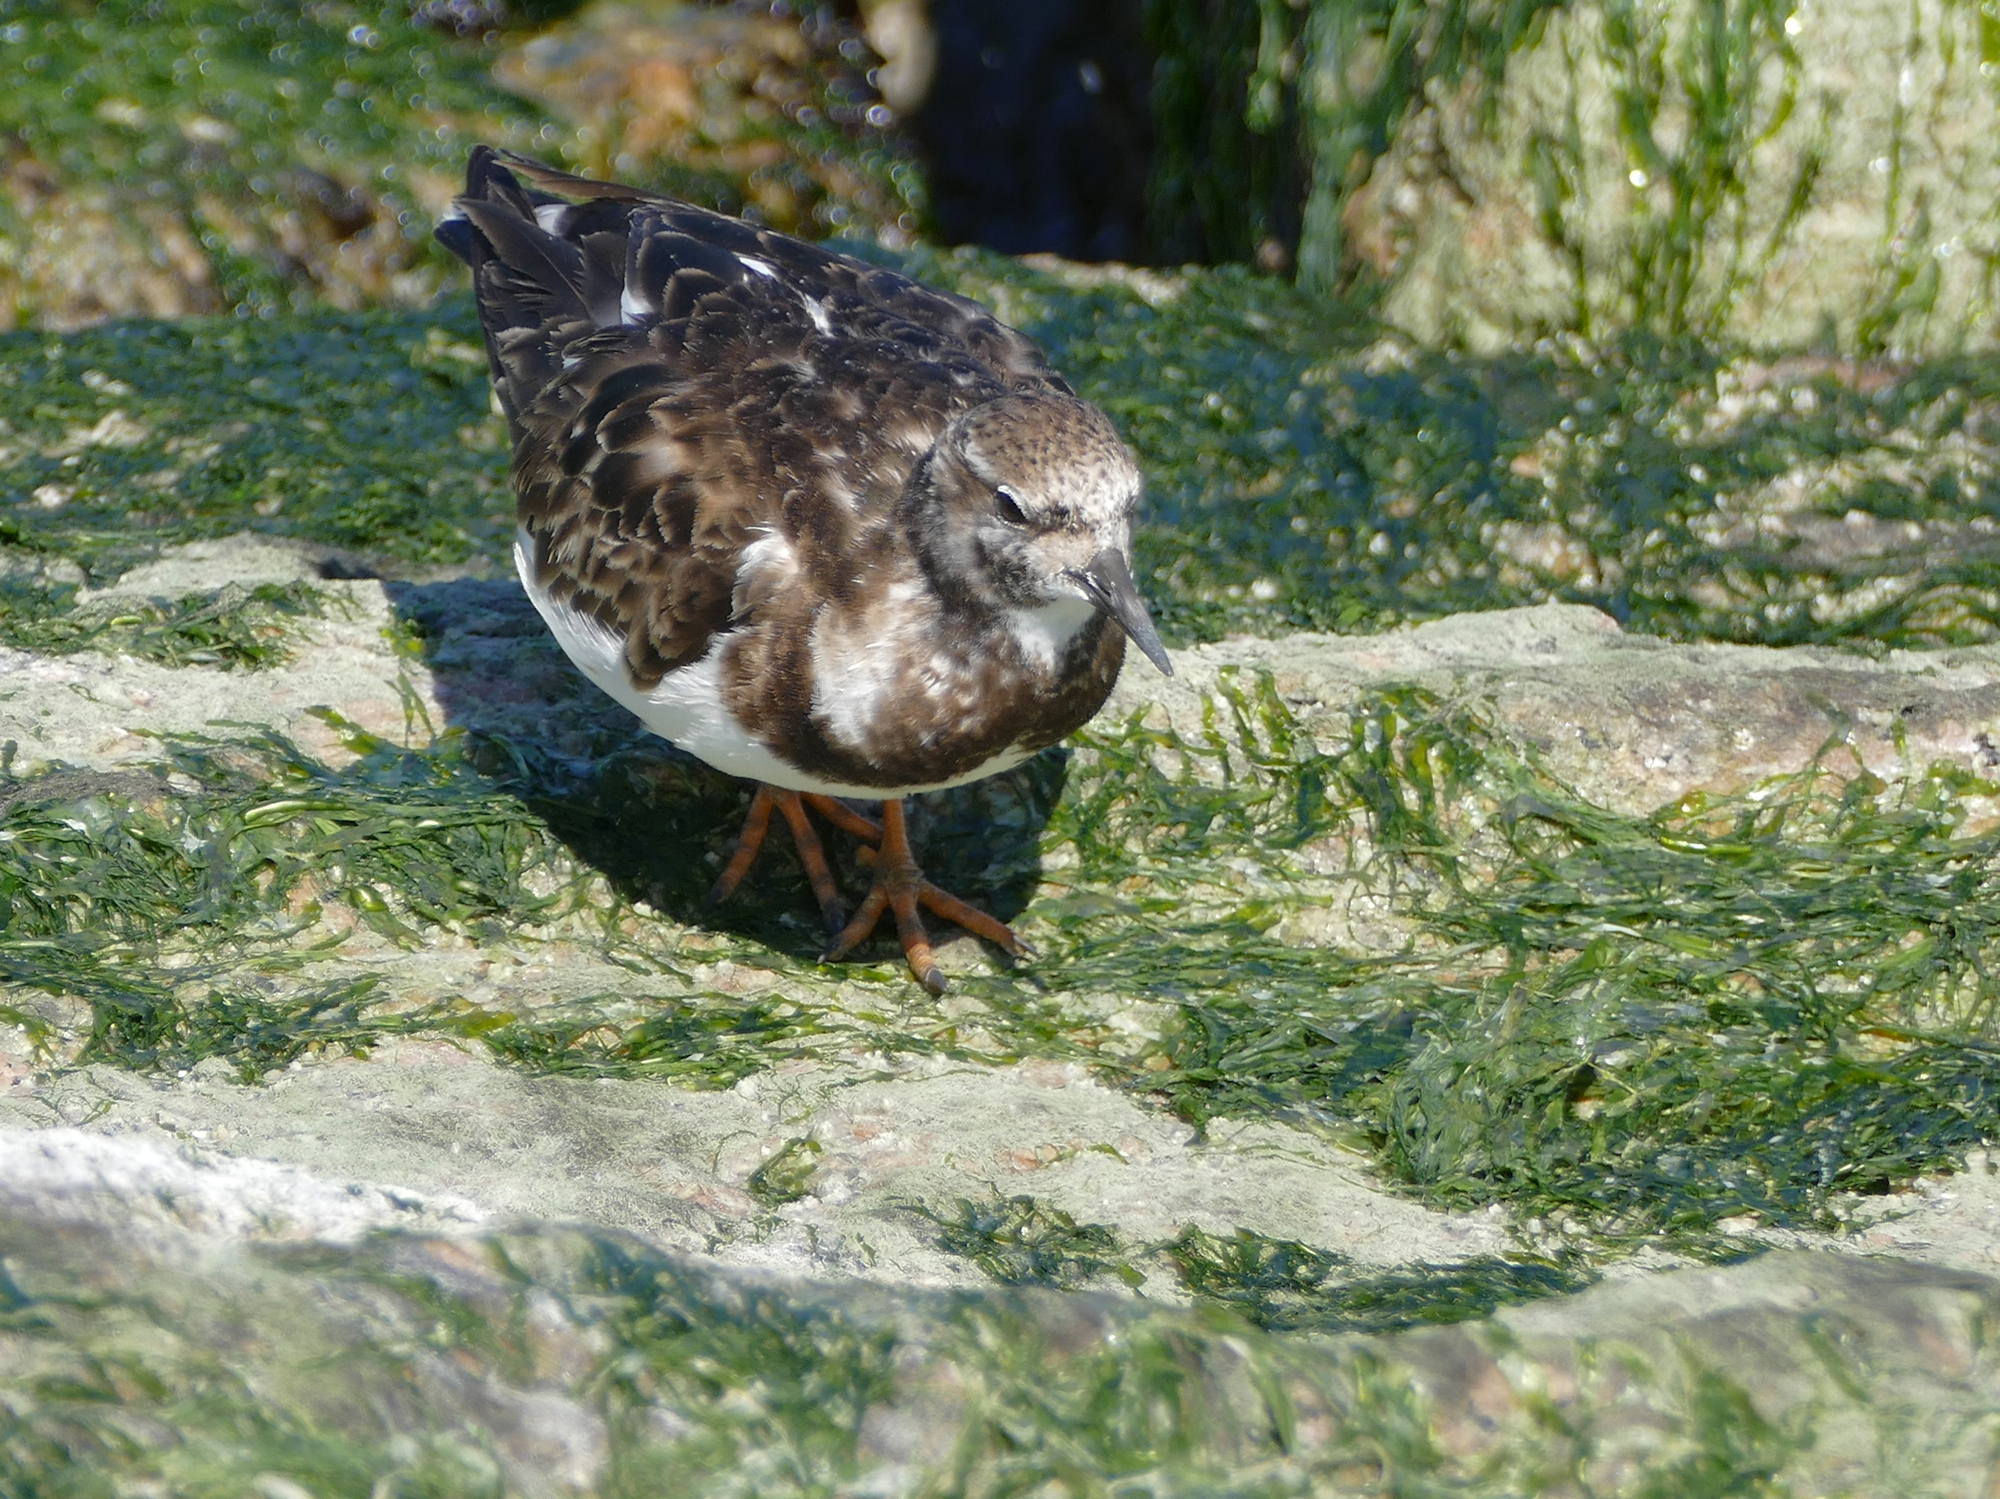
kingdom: Animalia
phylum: Chordata
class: Aves
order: Charadriiformes
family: Scolopacidae
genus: Arenaria
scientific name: Arenaria interpres
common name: Ruddy turnstone
